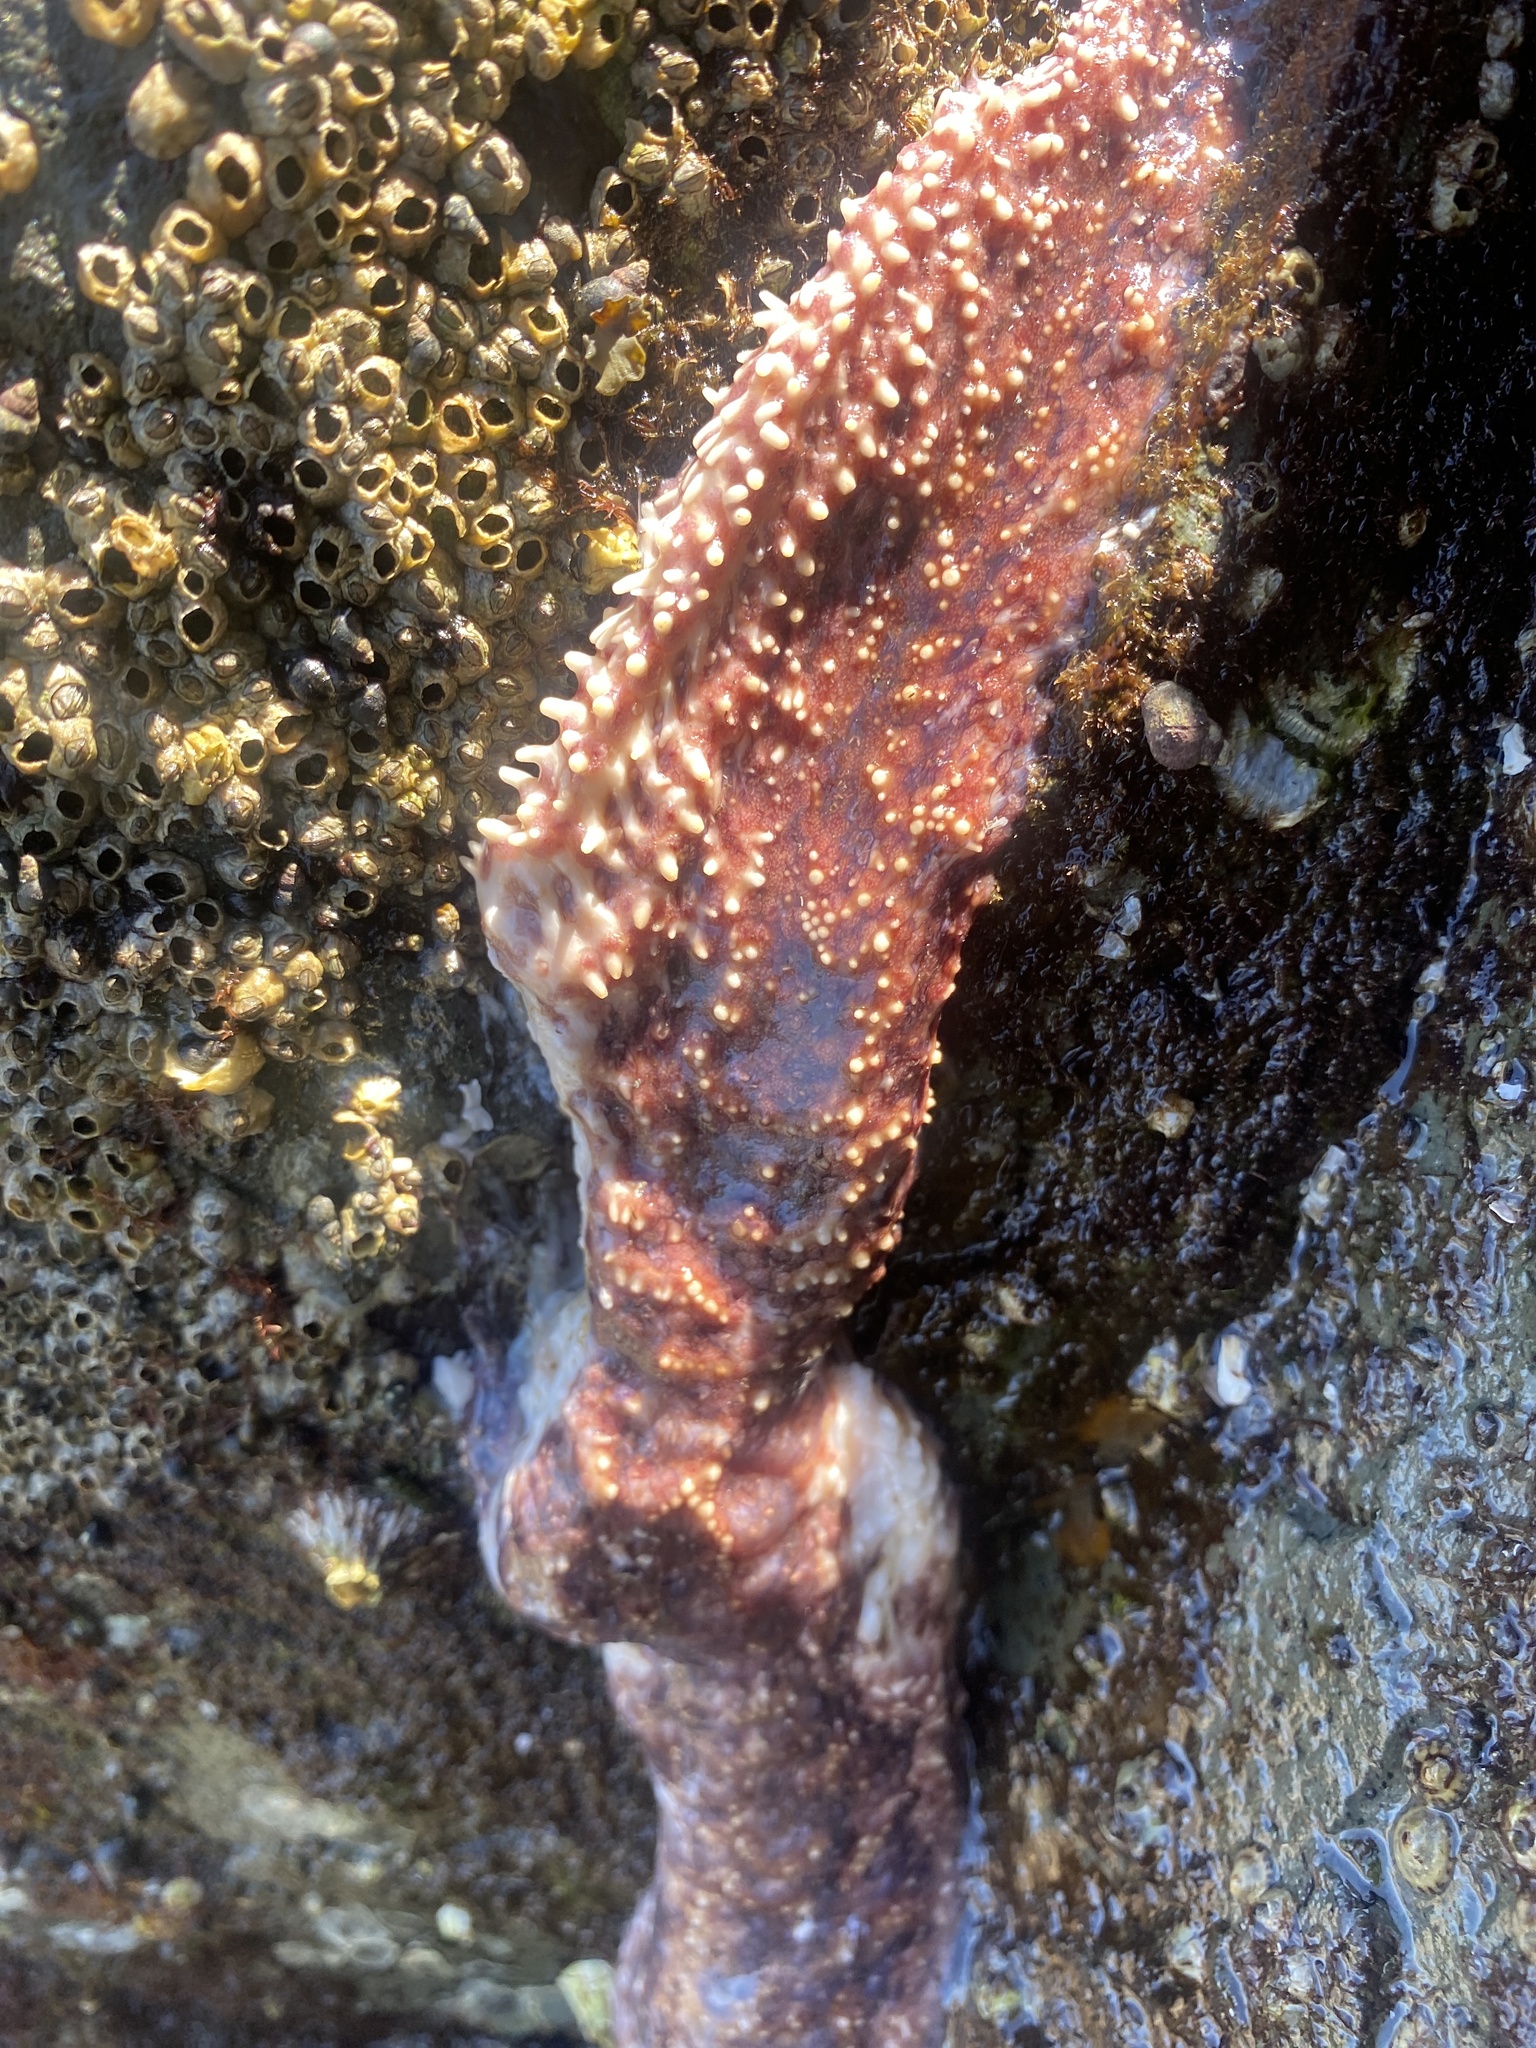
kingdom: Animalia
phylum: Echinodermata
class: Asteroidea
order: Forcipulatida
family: Asteriidae
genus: Pisaster
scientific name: Pisaster ochraceus
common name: Ochre stars
